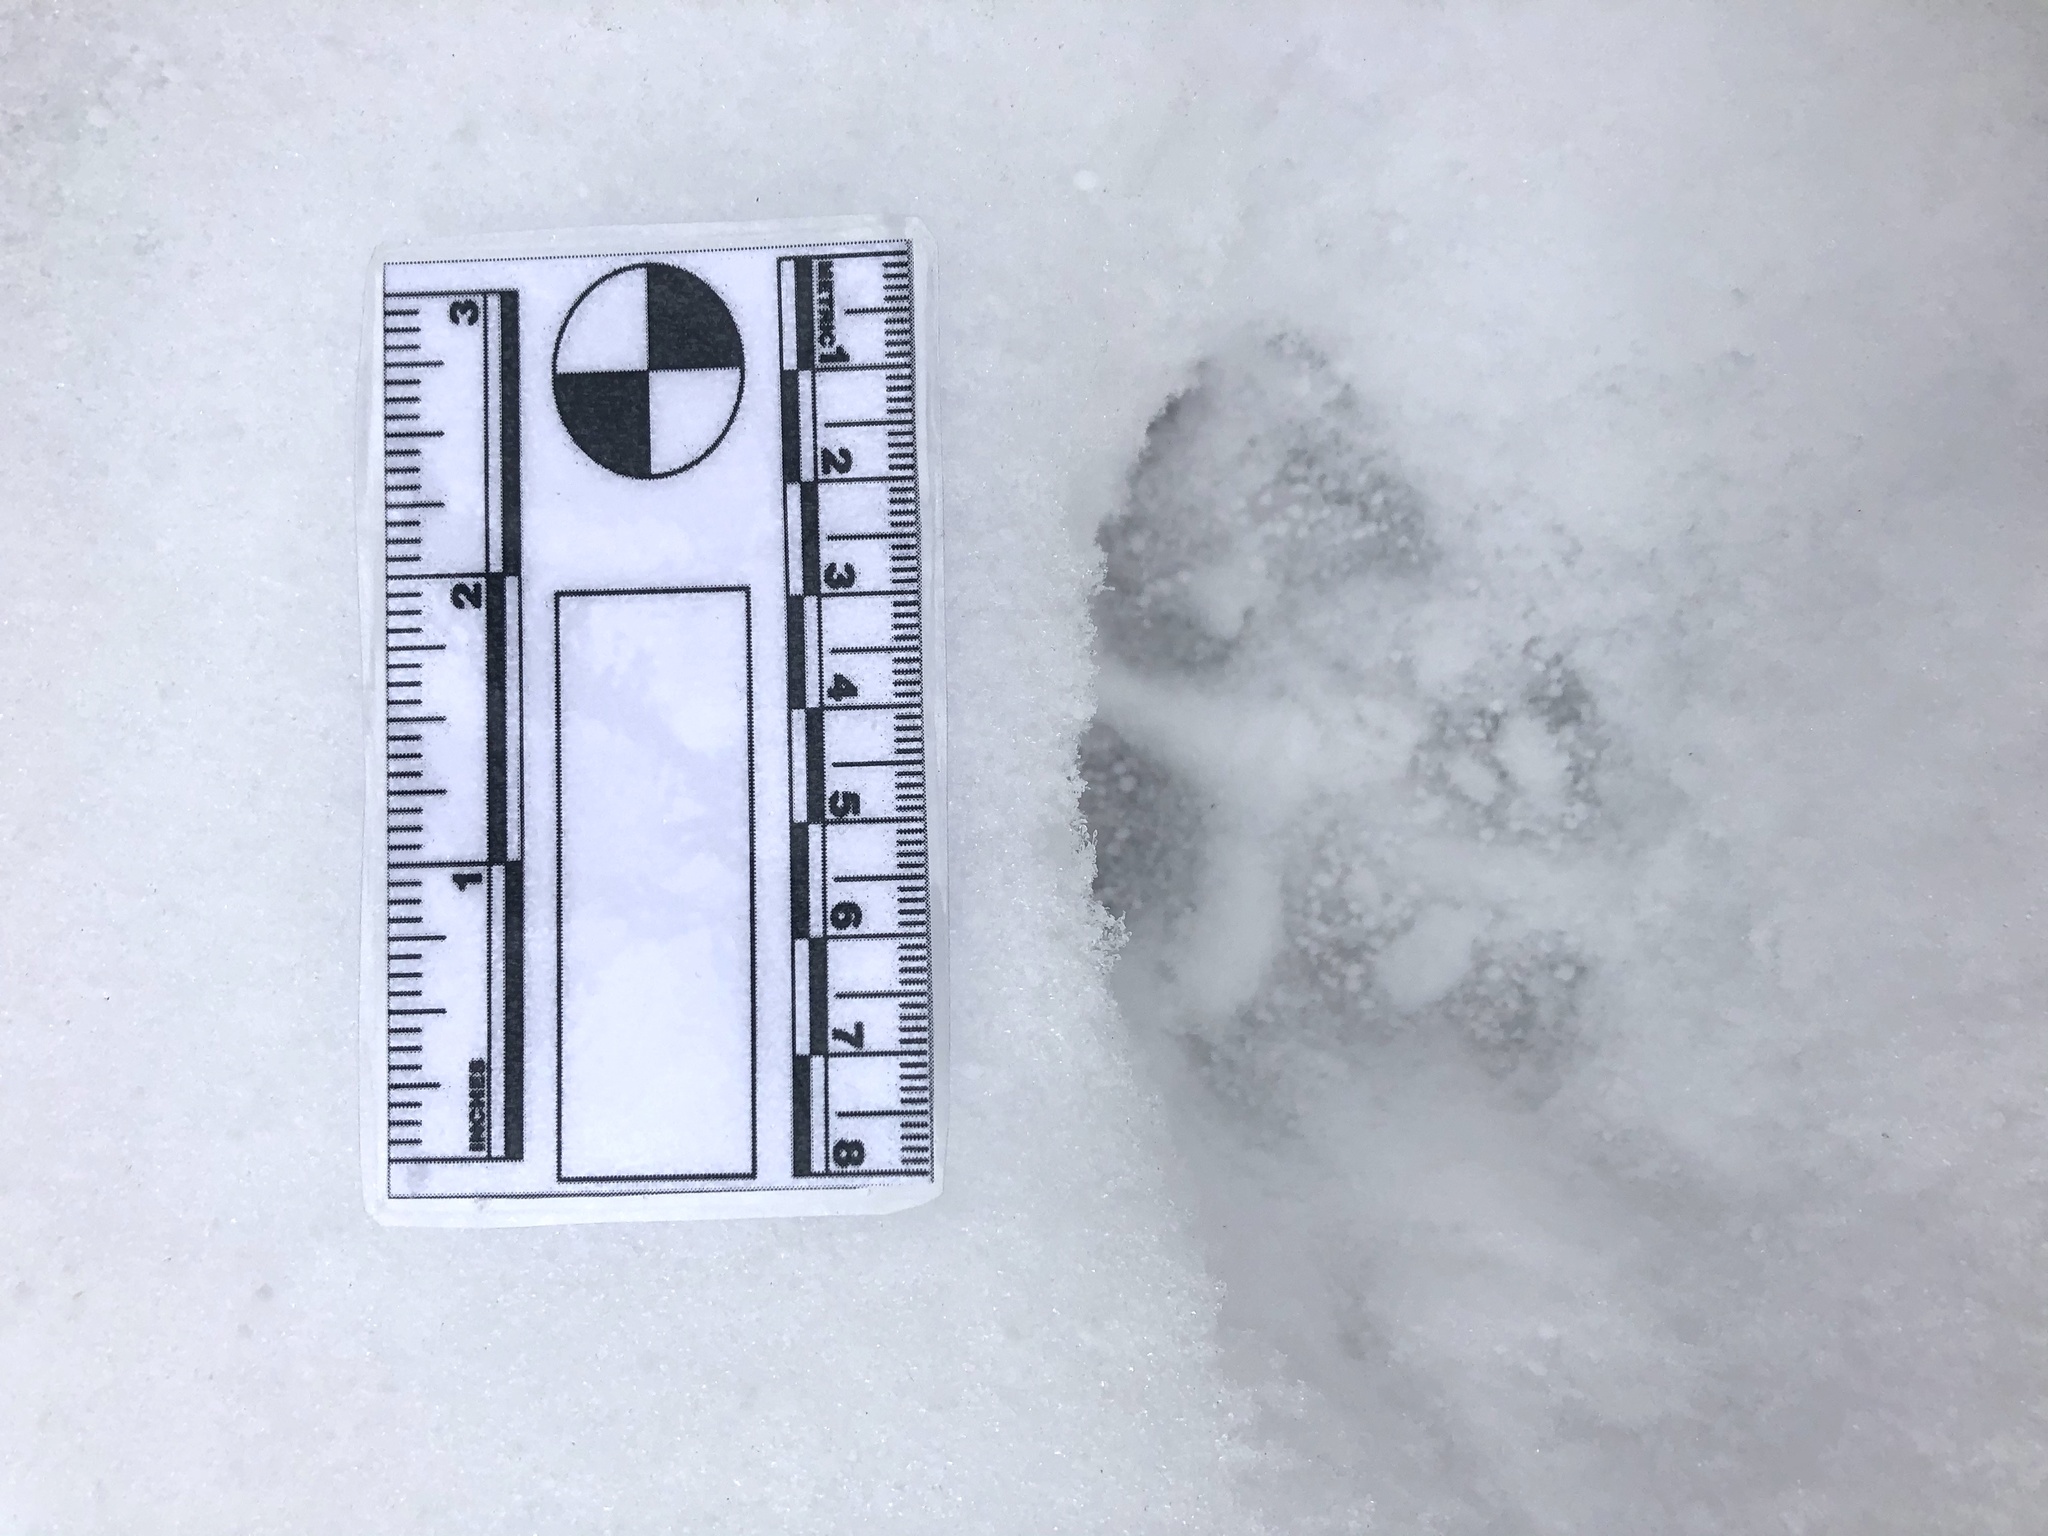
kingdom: Animalia
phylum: Chordata
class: Mammalia
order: Carnivora
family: Canidae
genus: Canis
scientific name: Canis latrans
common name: Coyote
